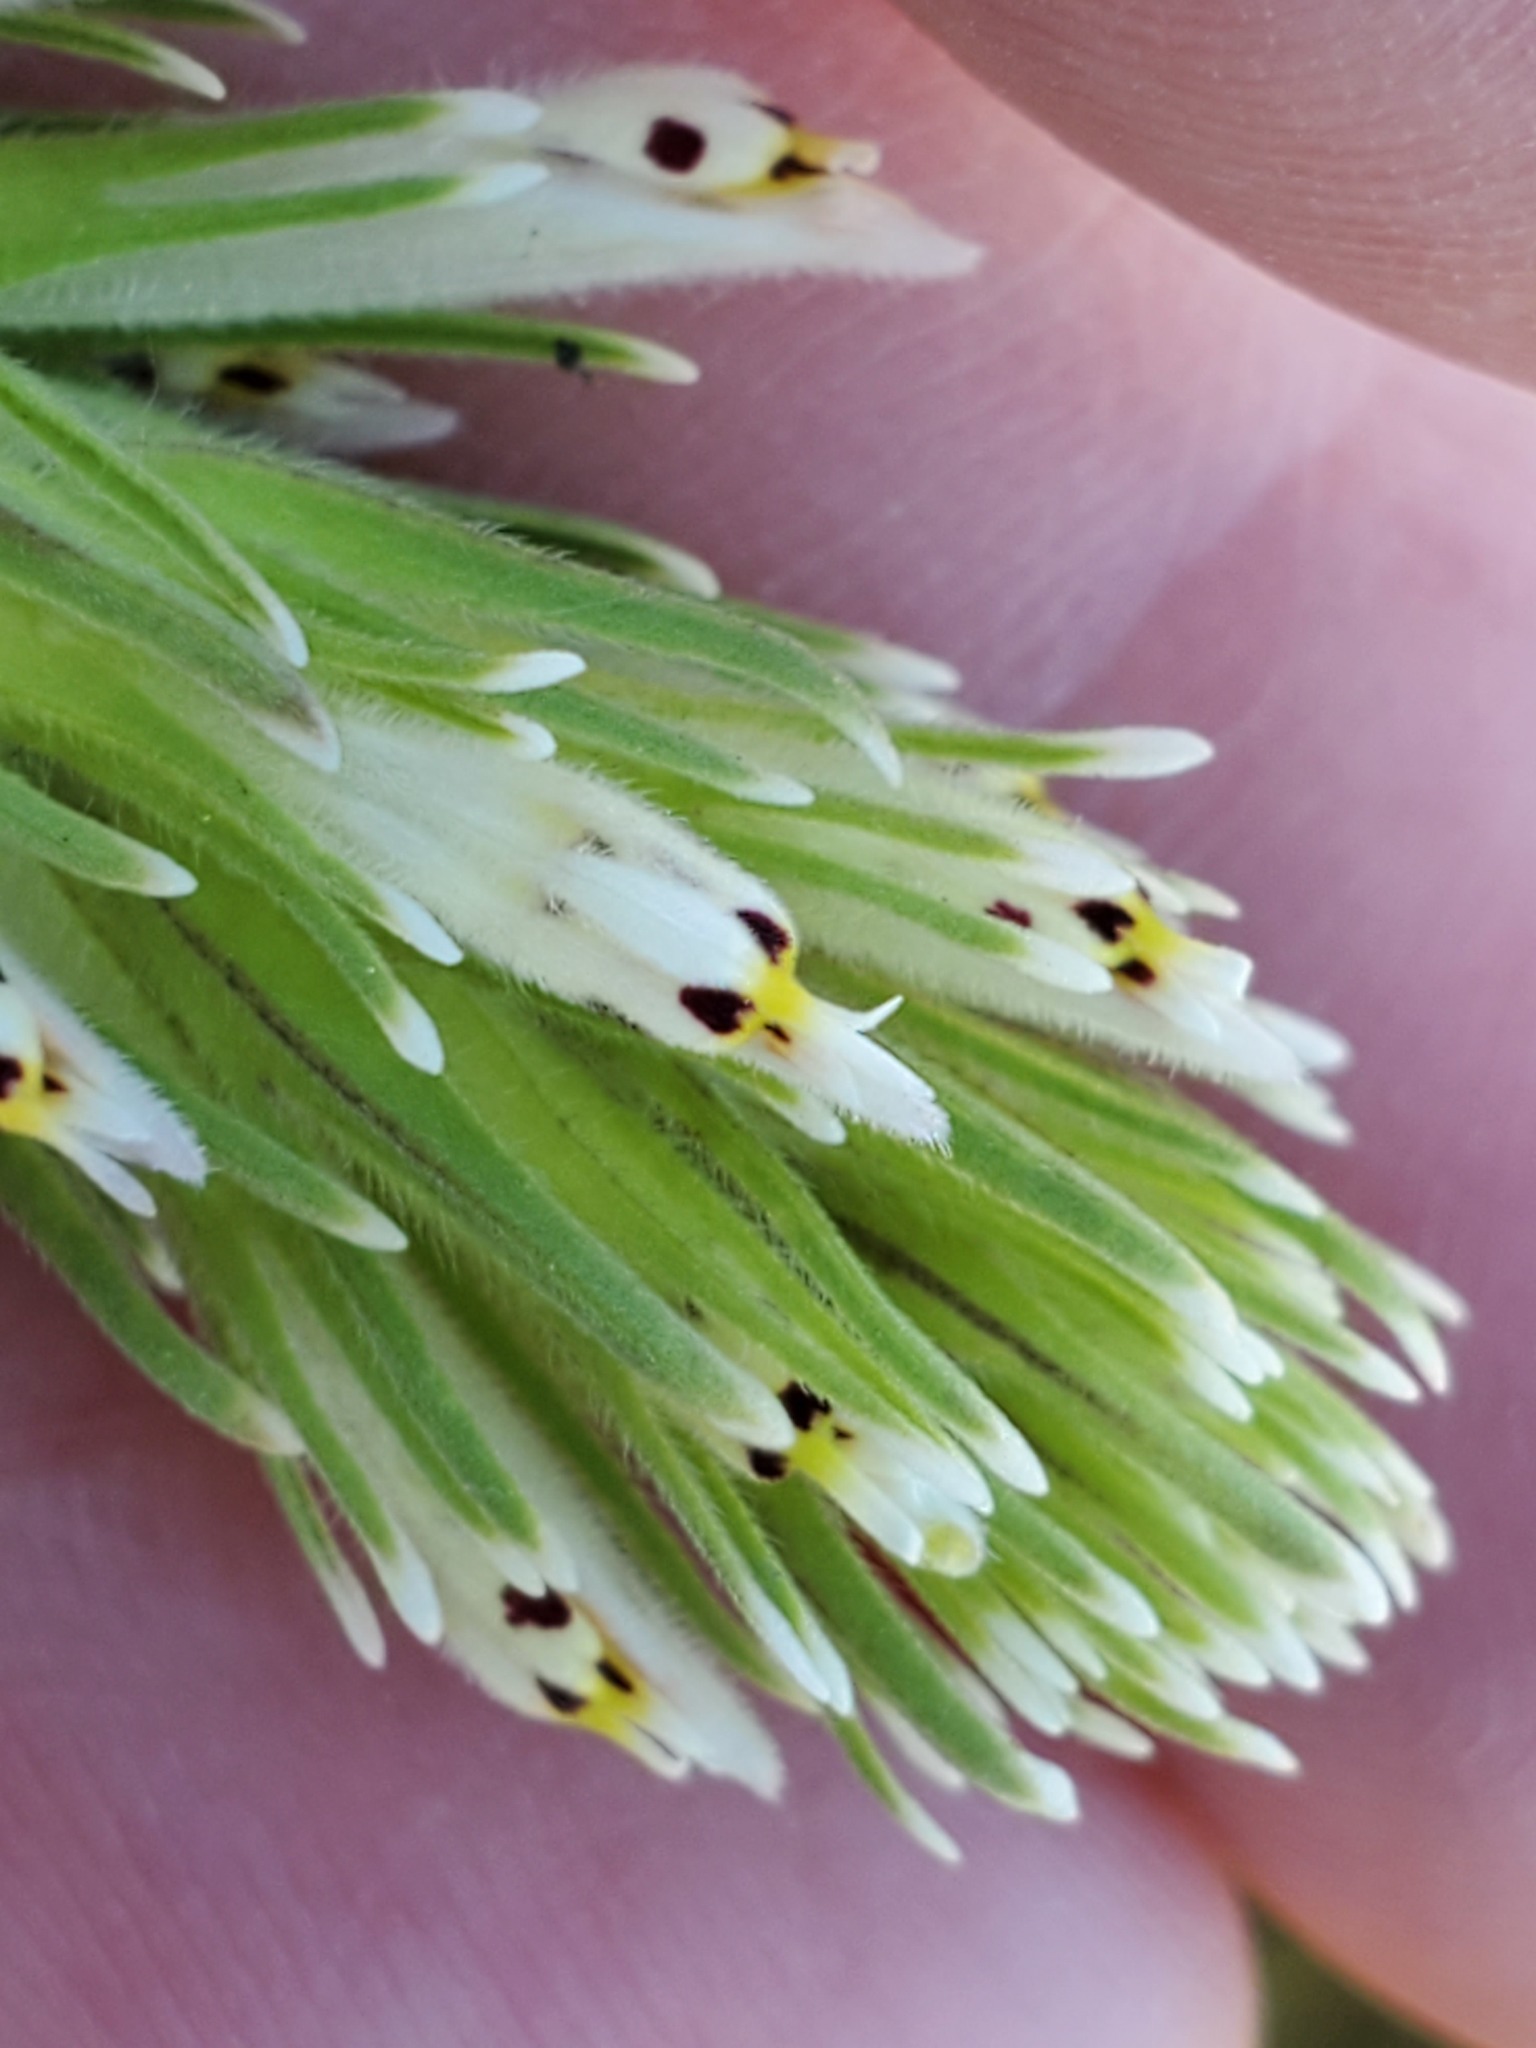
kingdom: Plantae
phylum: Tracheophyta
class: Magnoliopsida
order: Lamiales
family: Orobanchaceae
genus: Castilleja
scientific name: Castilleja attenuata
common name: Valley tassels
